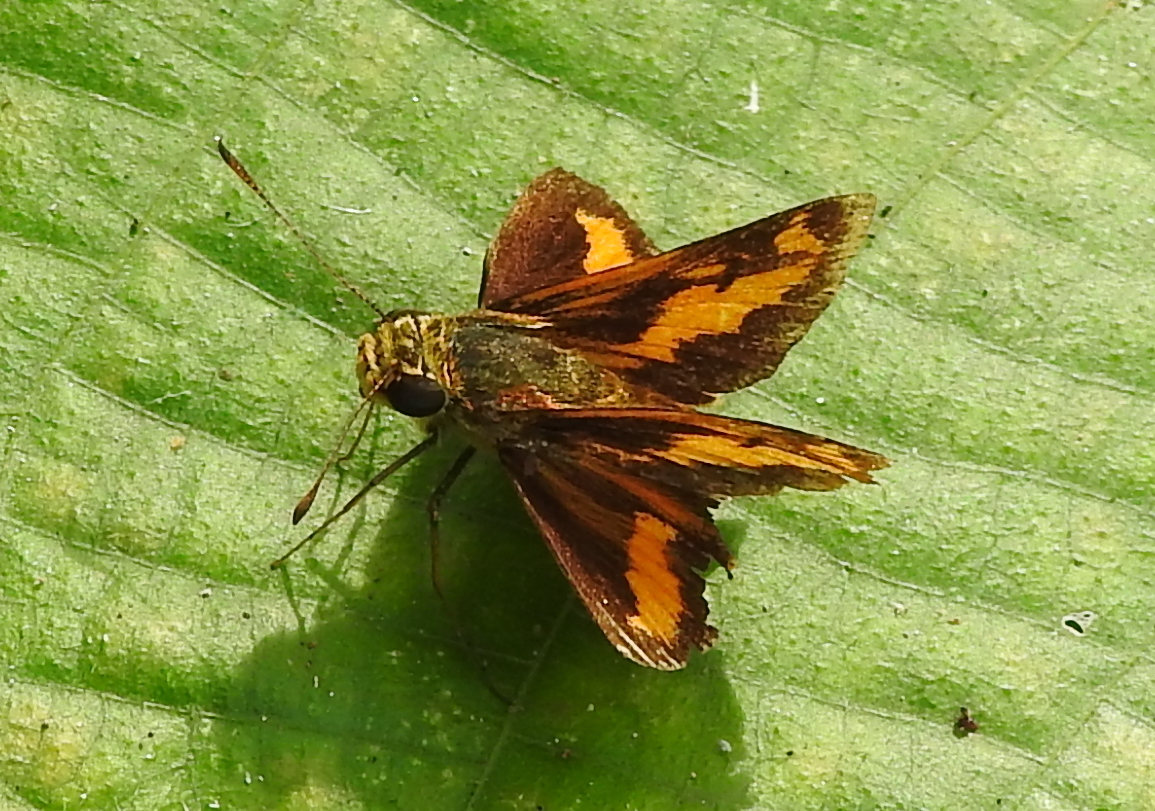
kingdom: Animalia
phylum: Arthropoda
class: Insecta
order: Lepidoptera
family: Hesperiidae
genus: Oriens
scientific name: Oriens gola
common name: Common dartlet
